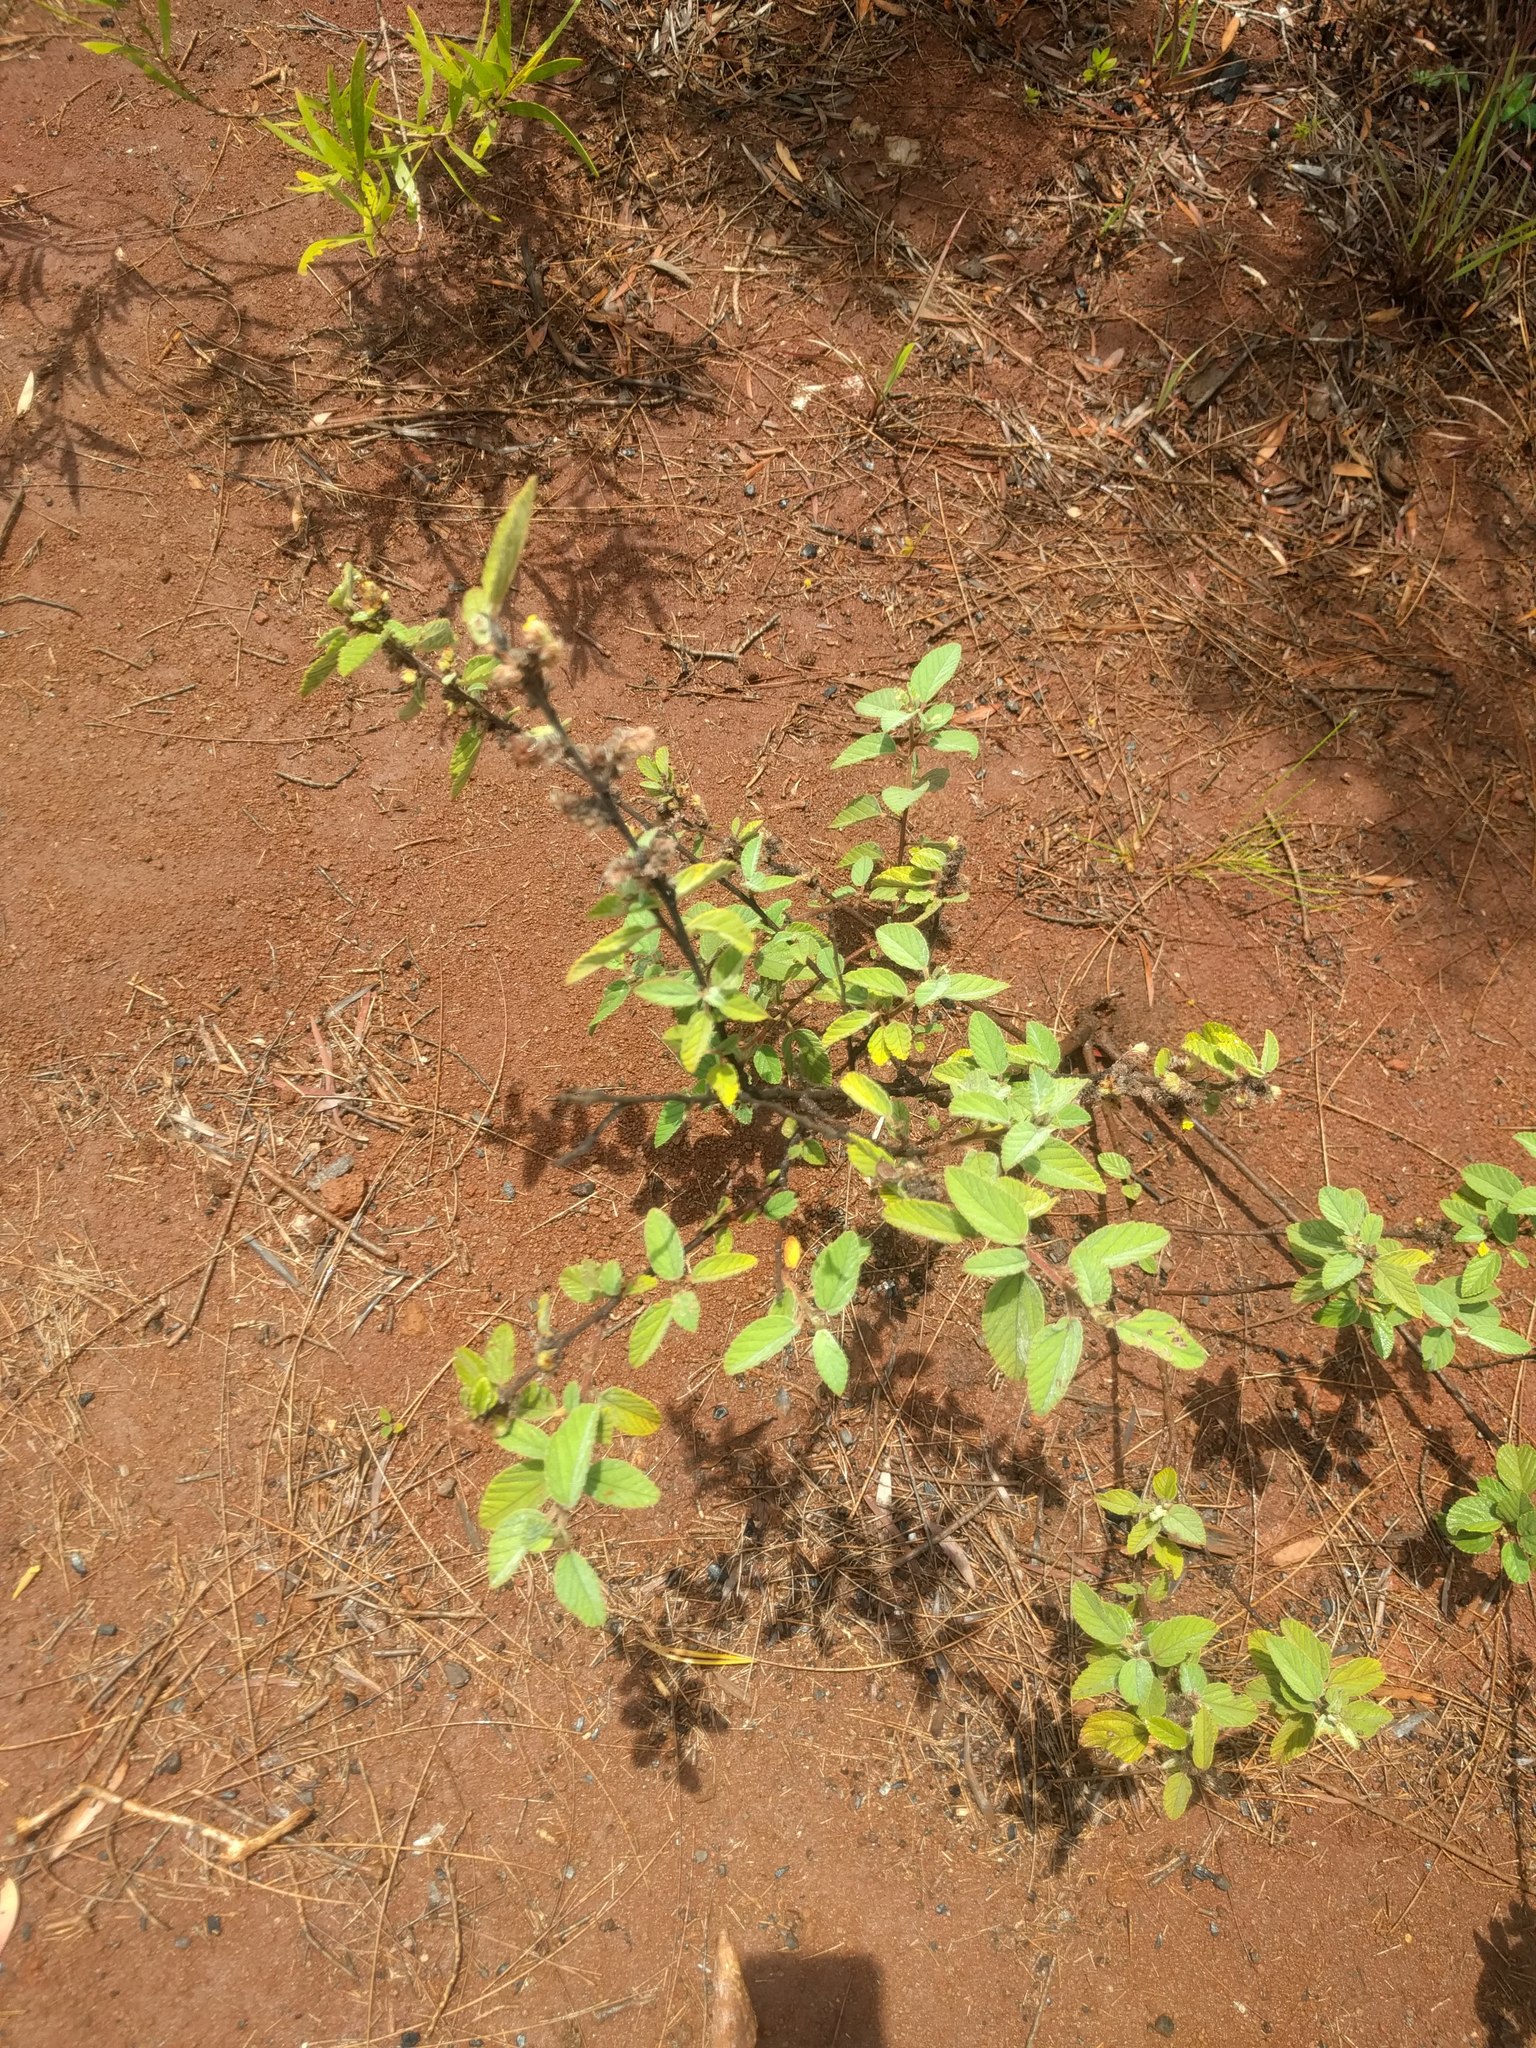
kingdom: Plantae
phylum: Tracheophyta
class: Magnoliopsida
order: Malvales
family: Malvaceae
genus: Waltheria
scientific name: Waltheria indica
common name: Leather-coat
